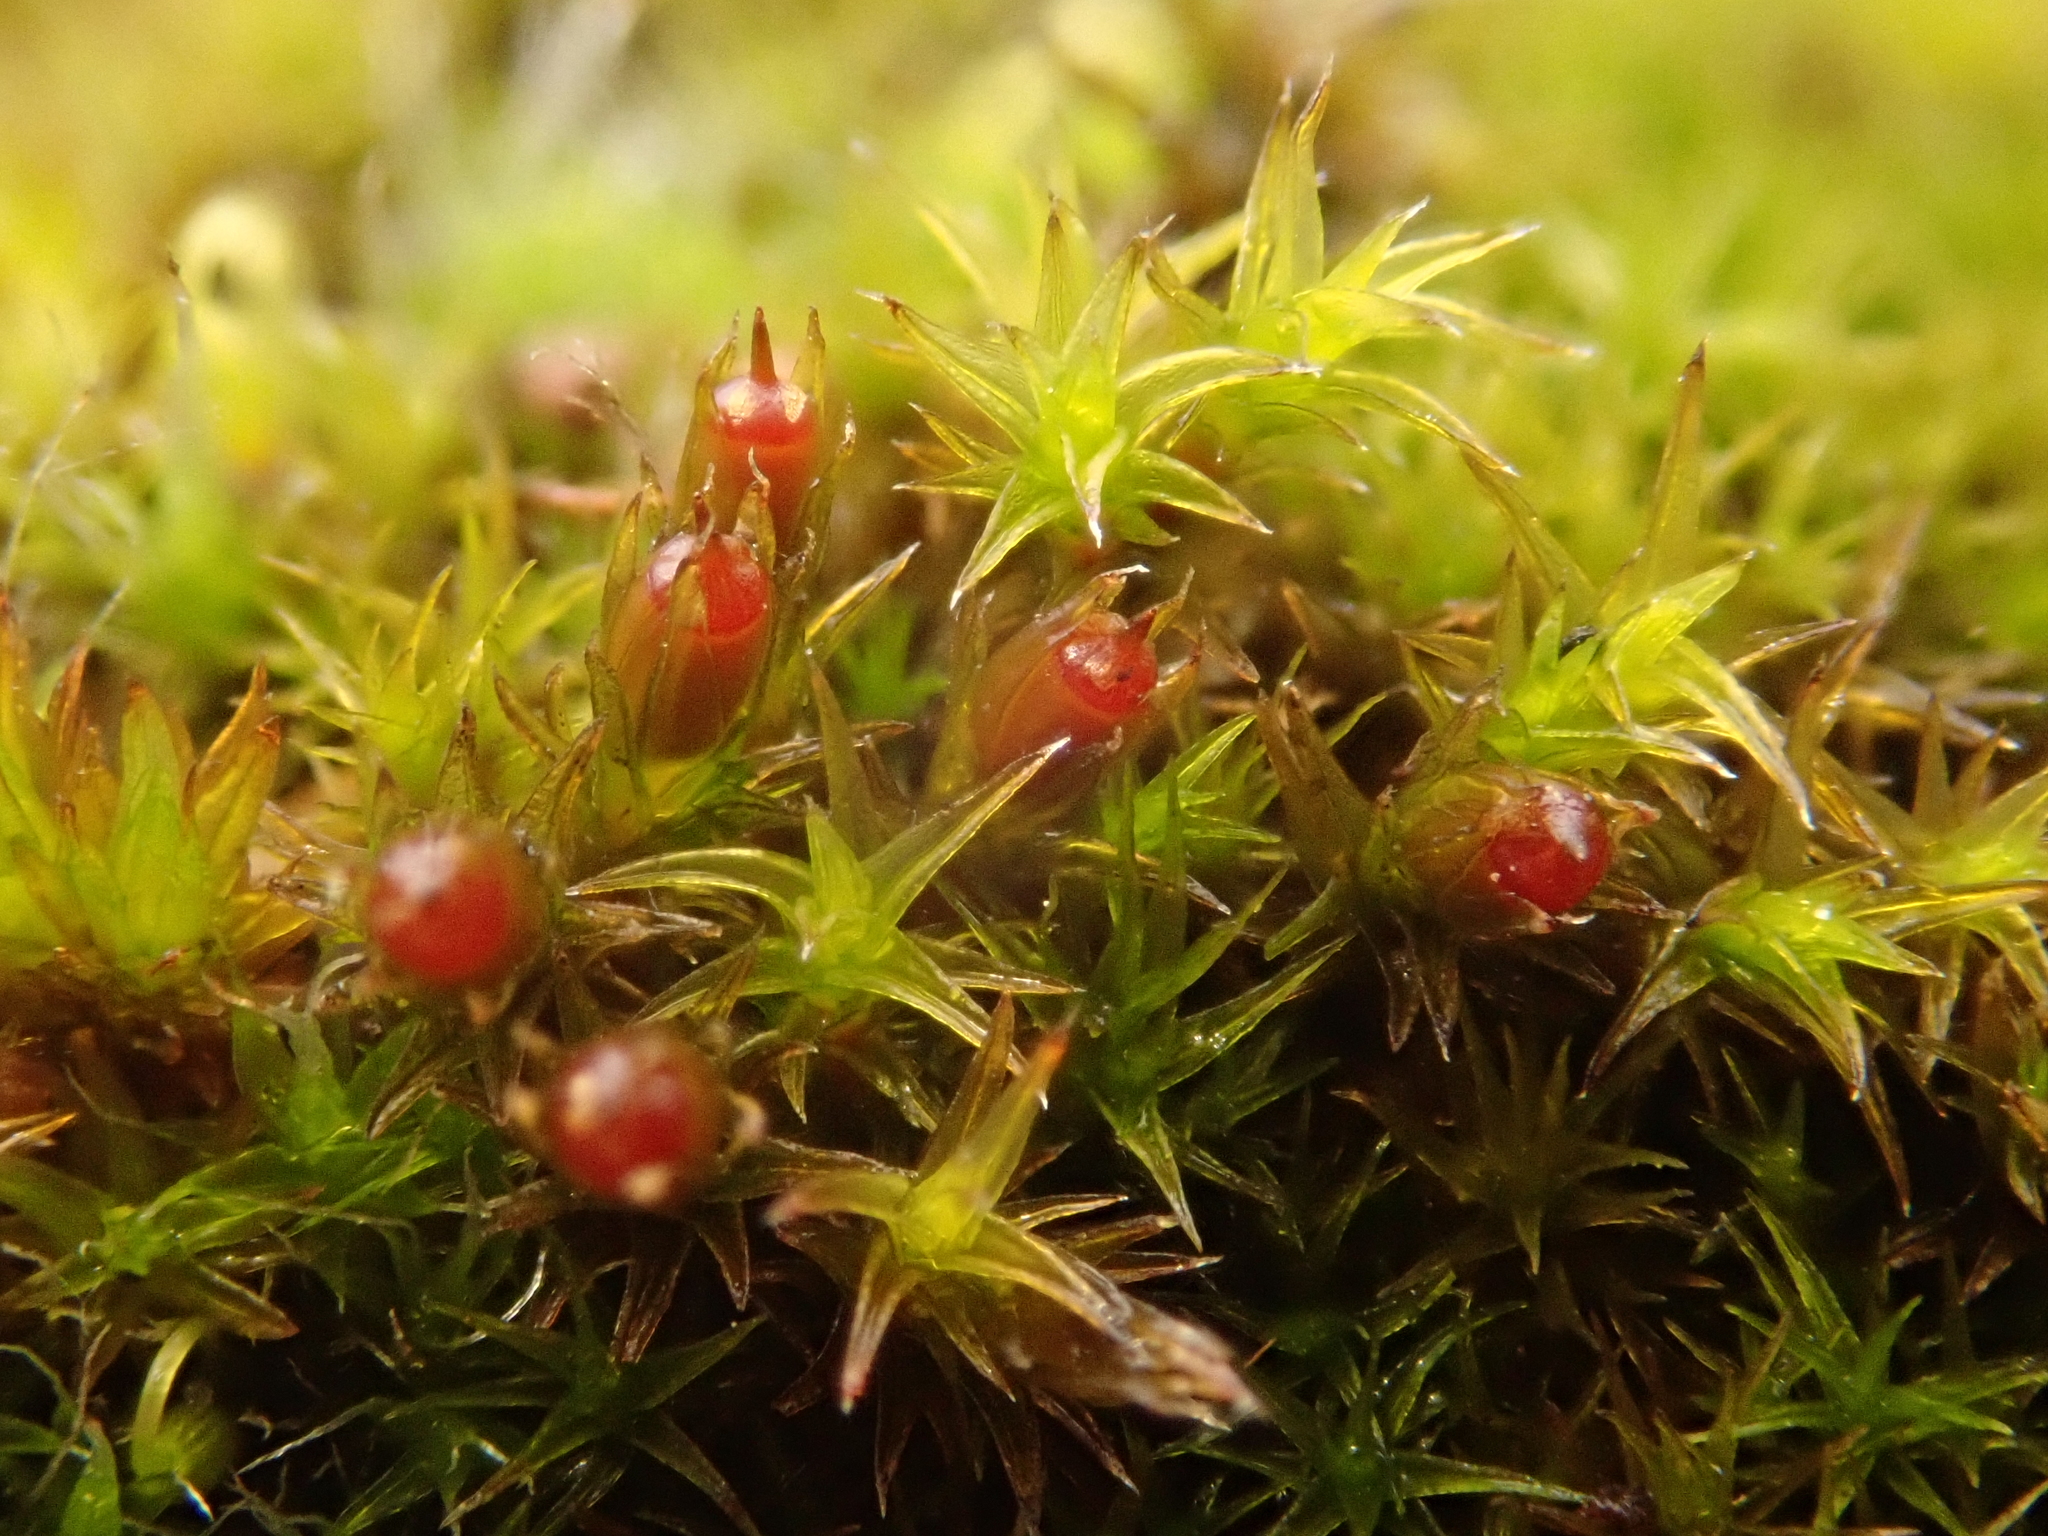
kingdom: Plantae
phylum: Bryophyta
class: Bryopsida
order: Grimmiales
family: Grimmiaceae
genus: Schistidium
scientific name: Schistidium crassipilum
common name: Thickpoint bloom moss
